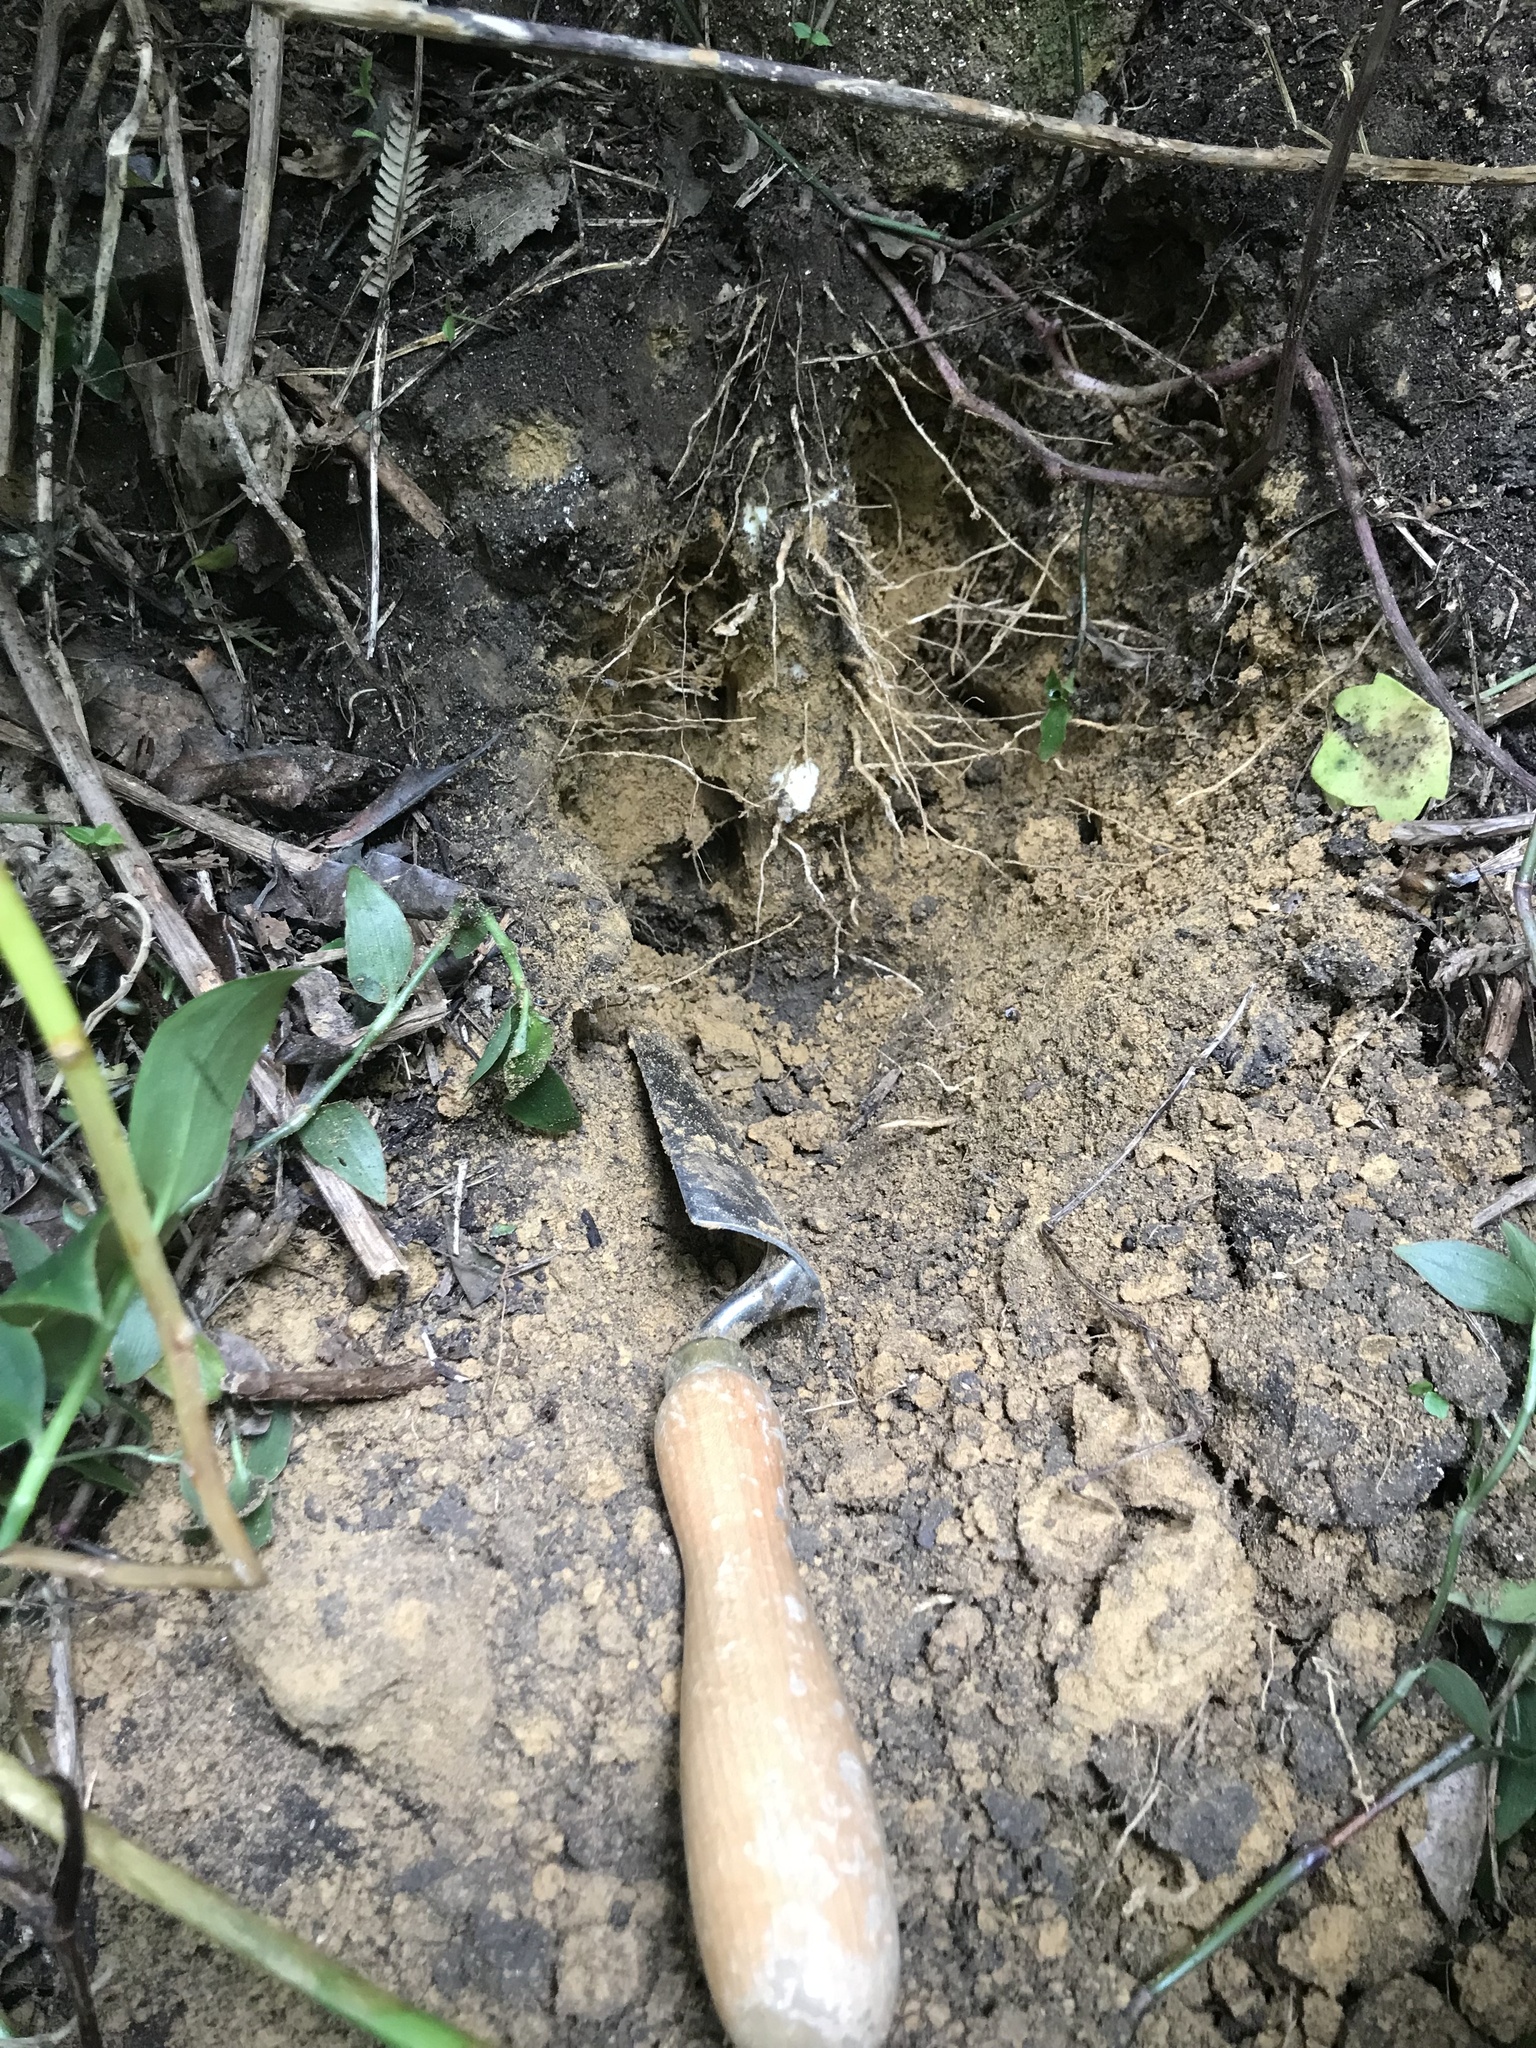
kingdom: Plantae
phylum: Tracheophyta
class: Liliopsida
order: Dioscoreales
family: Dioscoreaceae
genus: Dioscorea
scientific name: Dioscorea communis
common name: Black-bindweed
